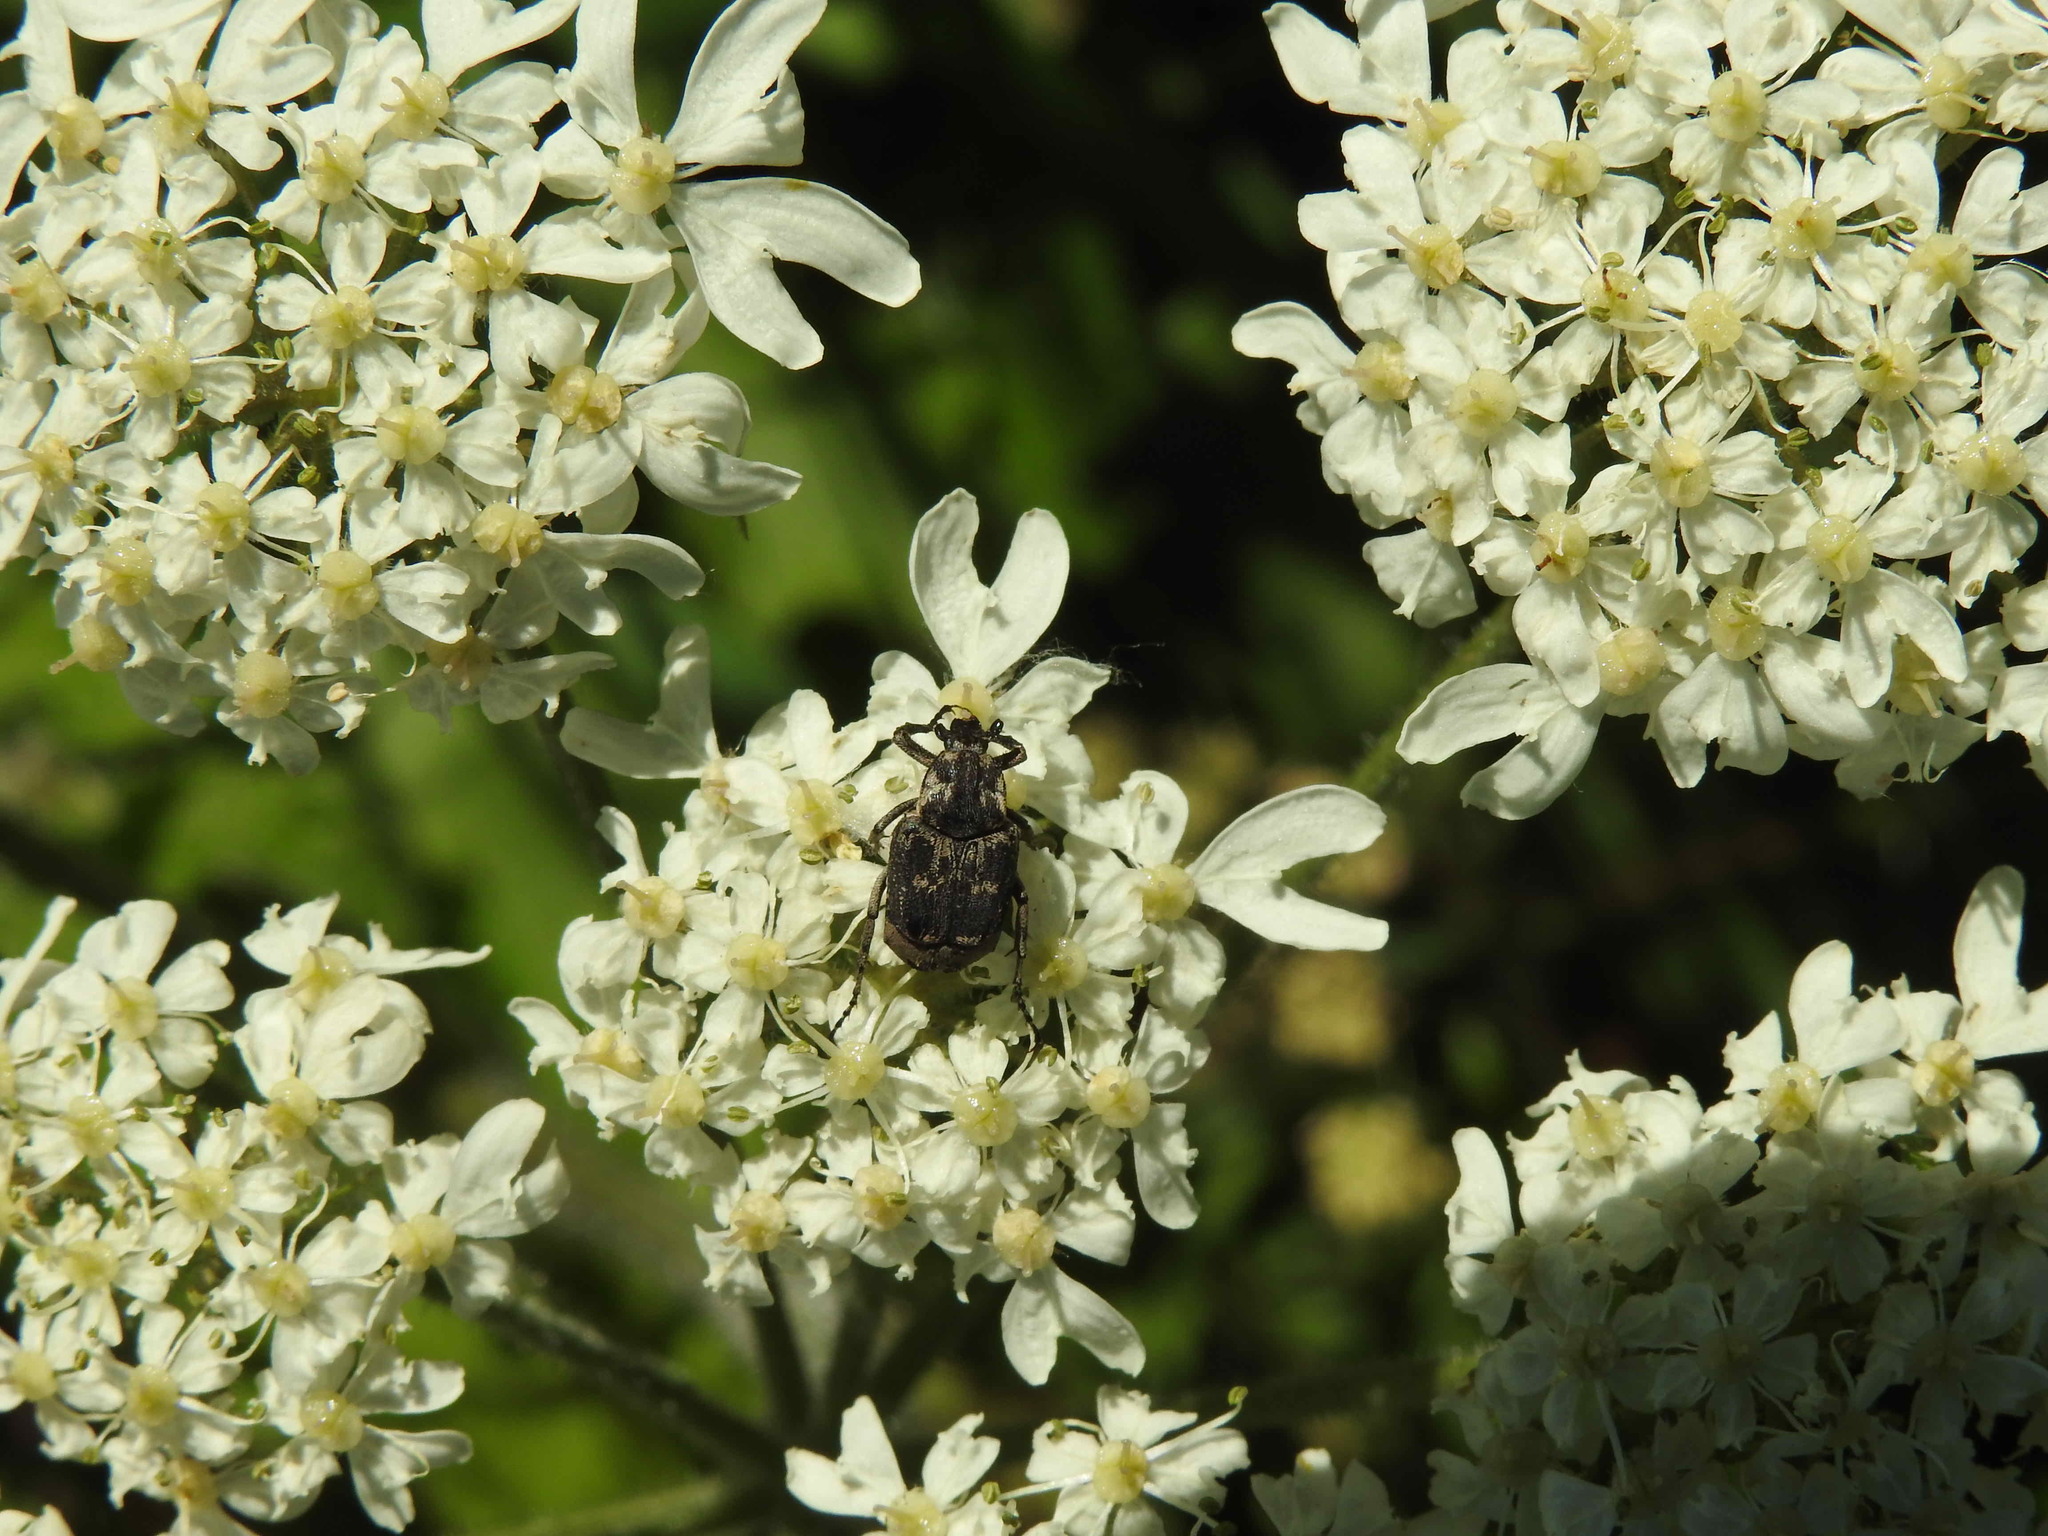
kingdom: Animalia
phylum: Arthropoda
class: Insecta
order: Coleoptera
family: Scarabaeidae
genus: Valgus
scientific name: Valgus hemipterus
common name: Bug flower chafer
